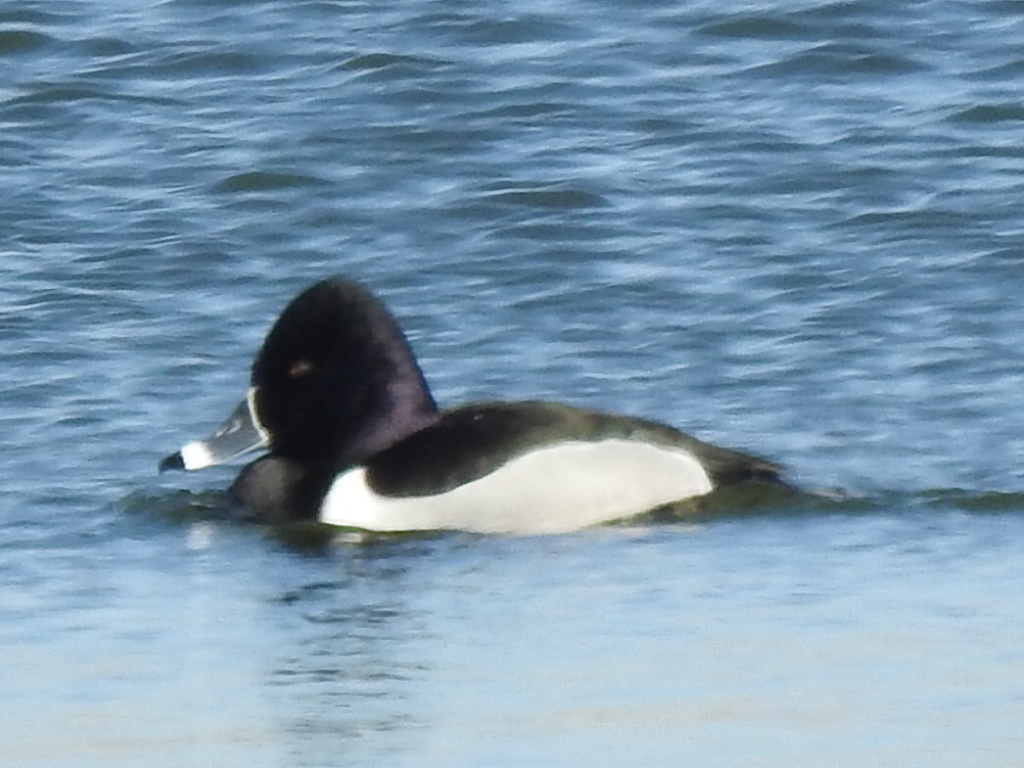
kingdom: Animalia
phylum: Chordata
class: Aves
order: Anseriformes
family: Anatidae
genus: Aythya
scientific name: Aythya collaris
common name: Ring-necked duck
